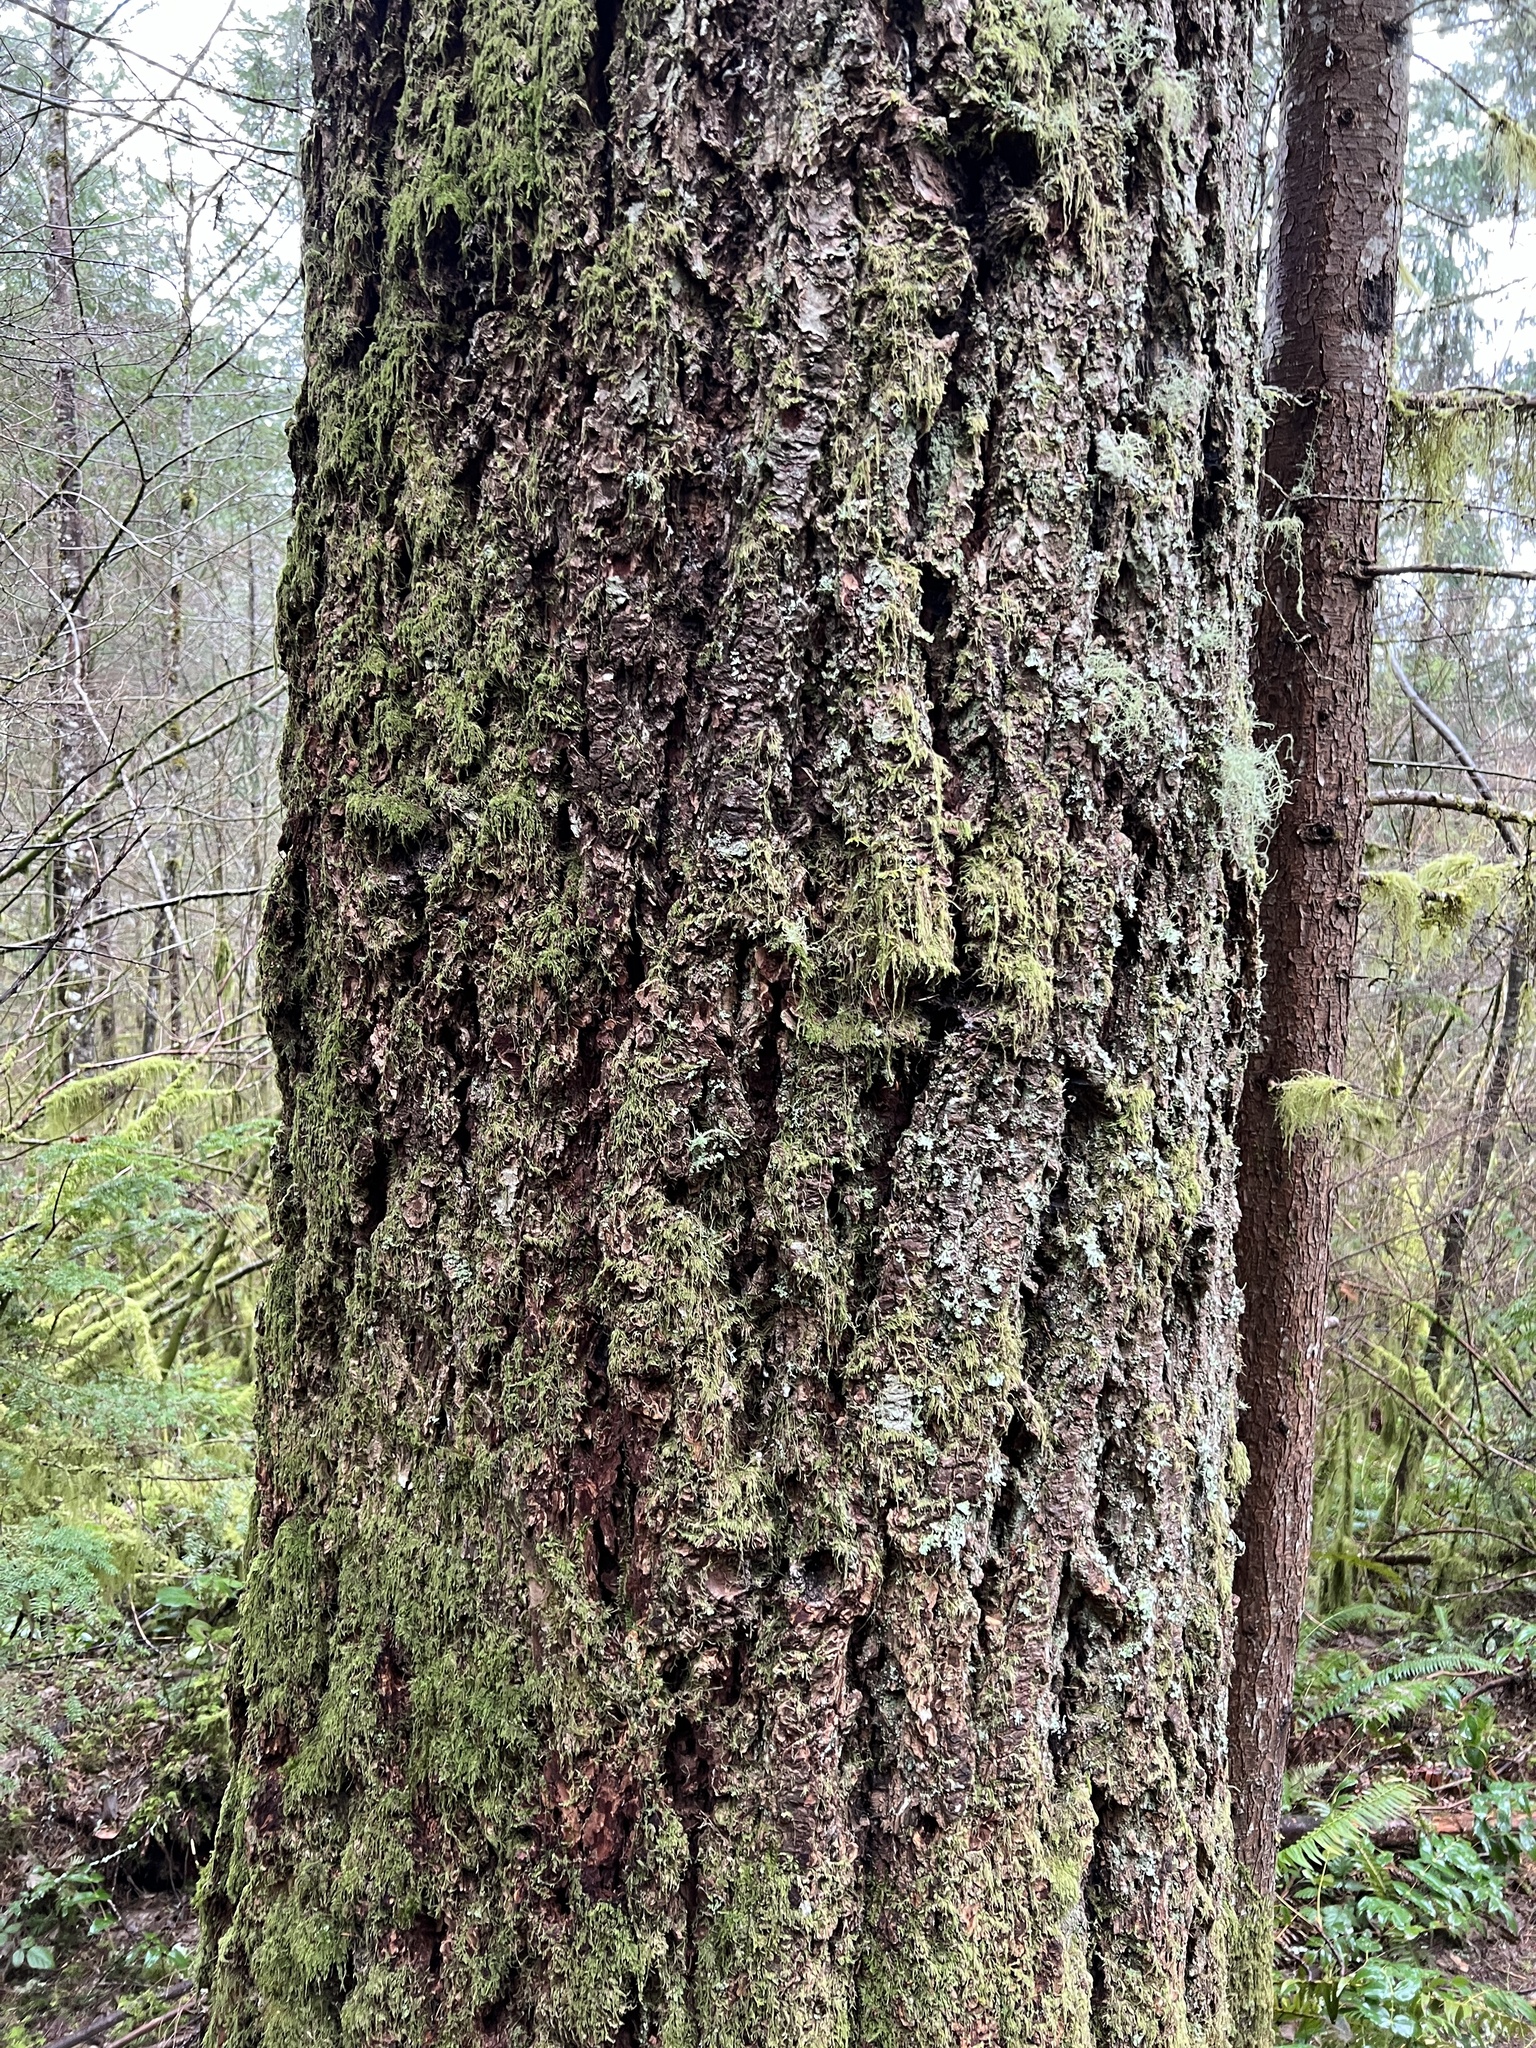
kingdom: Plantae
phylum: Tracheophyta
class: Pinopsida
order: Pinales
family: Pinaceae
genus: Pseudotsuga
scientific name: Pseudotsuga menziesii
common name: Douglas fir
